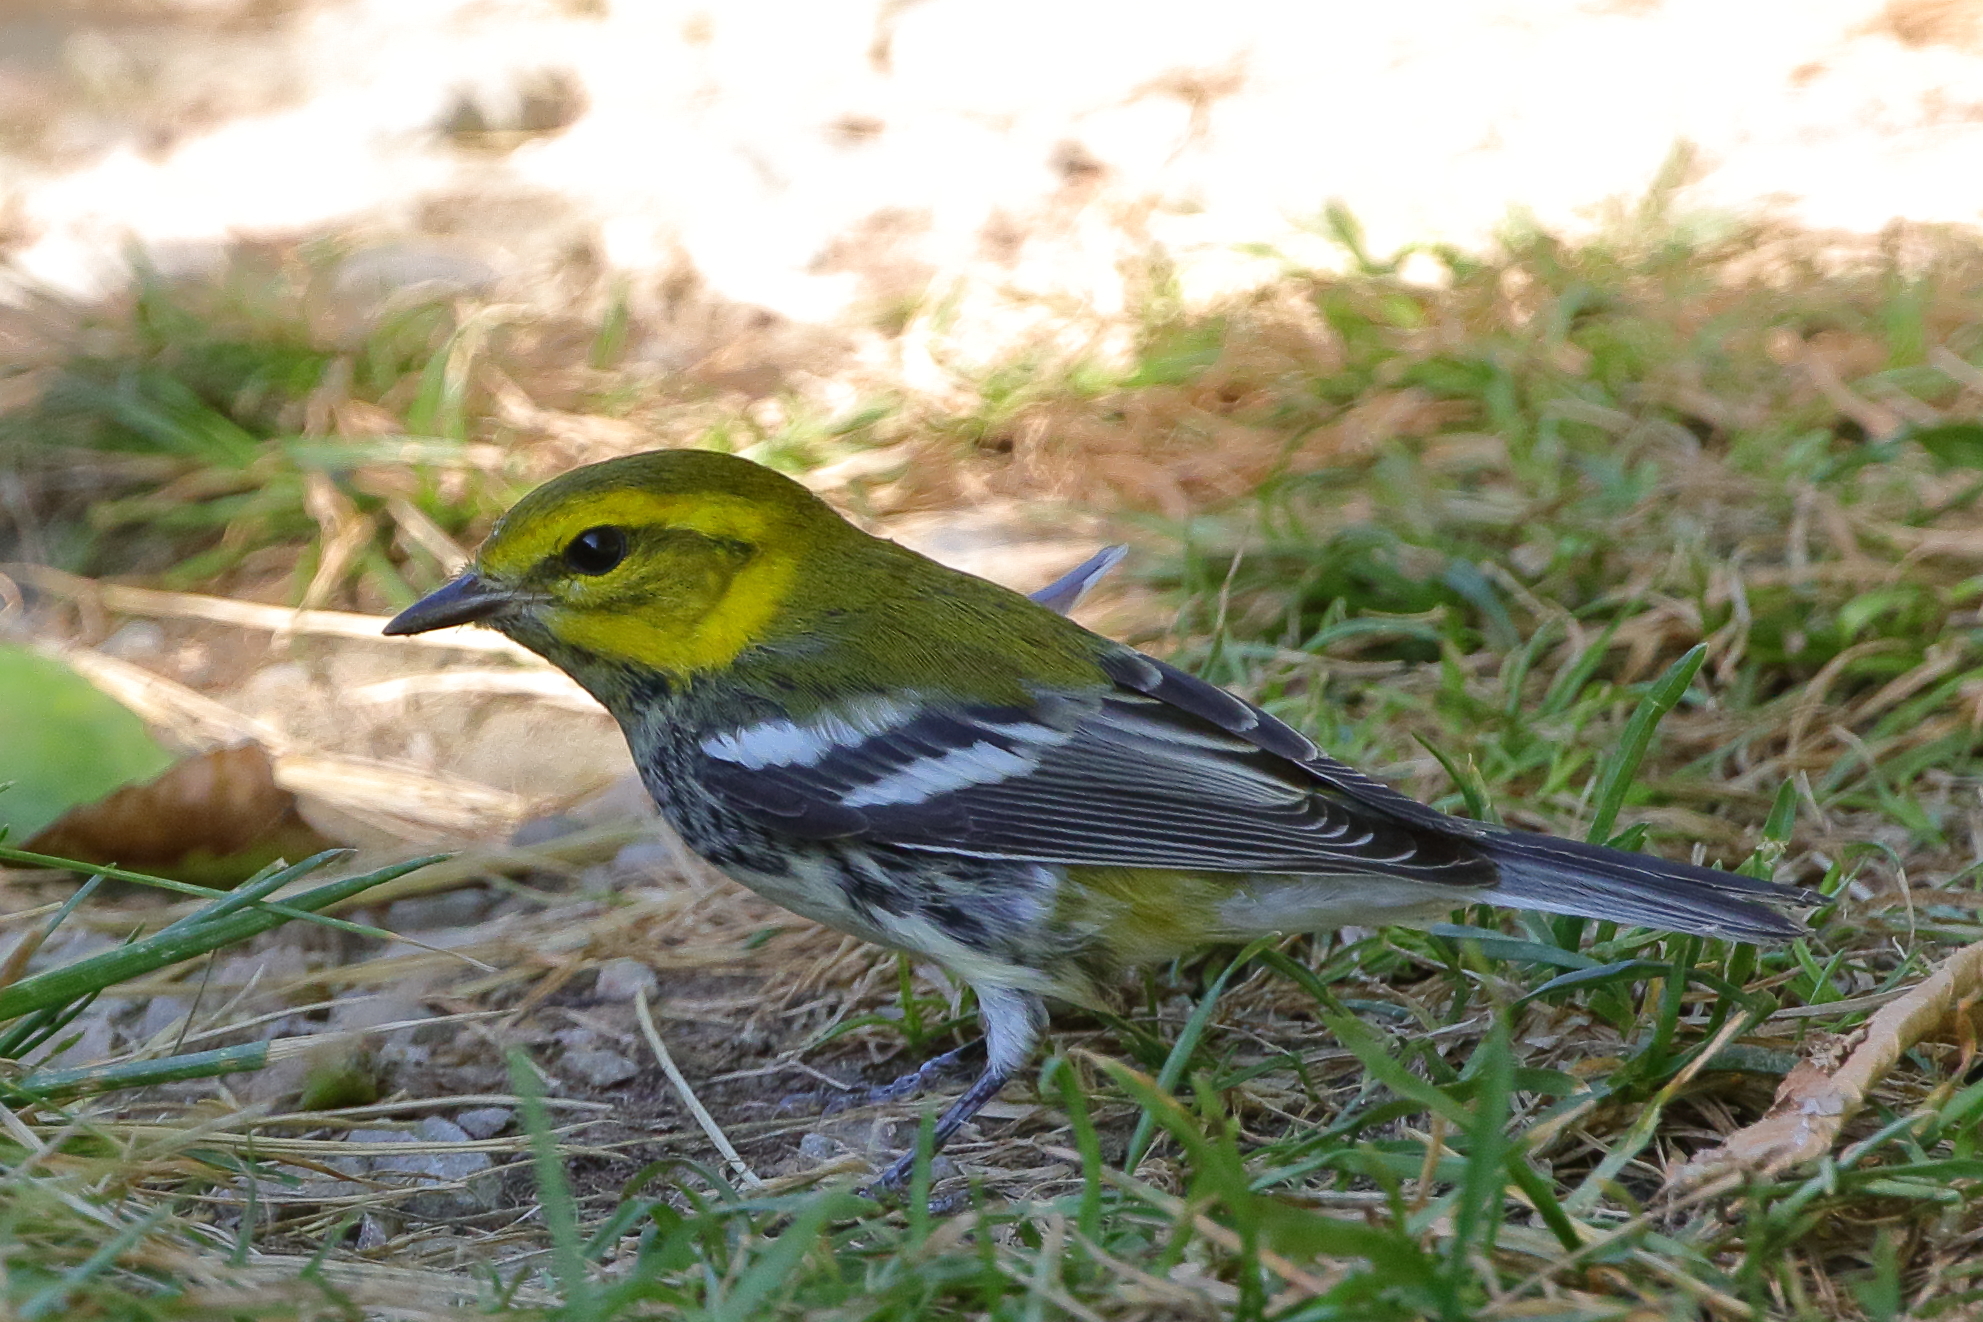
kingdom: Animalia
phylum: Chordata
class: Aves
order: Passeriformes
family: Parulidae
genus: Setophaga
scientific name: Setophaga virens
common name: Black-throated green warbler
